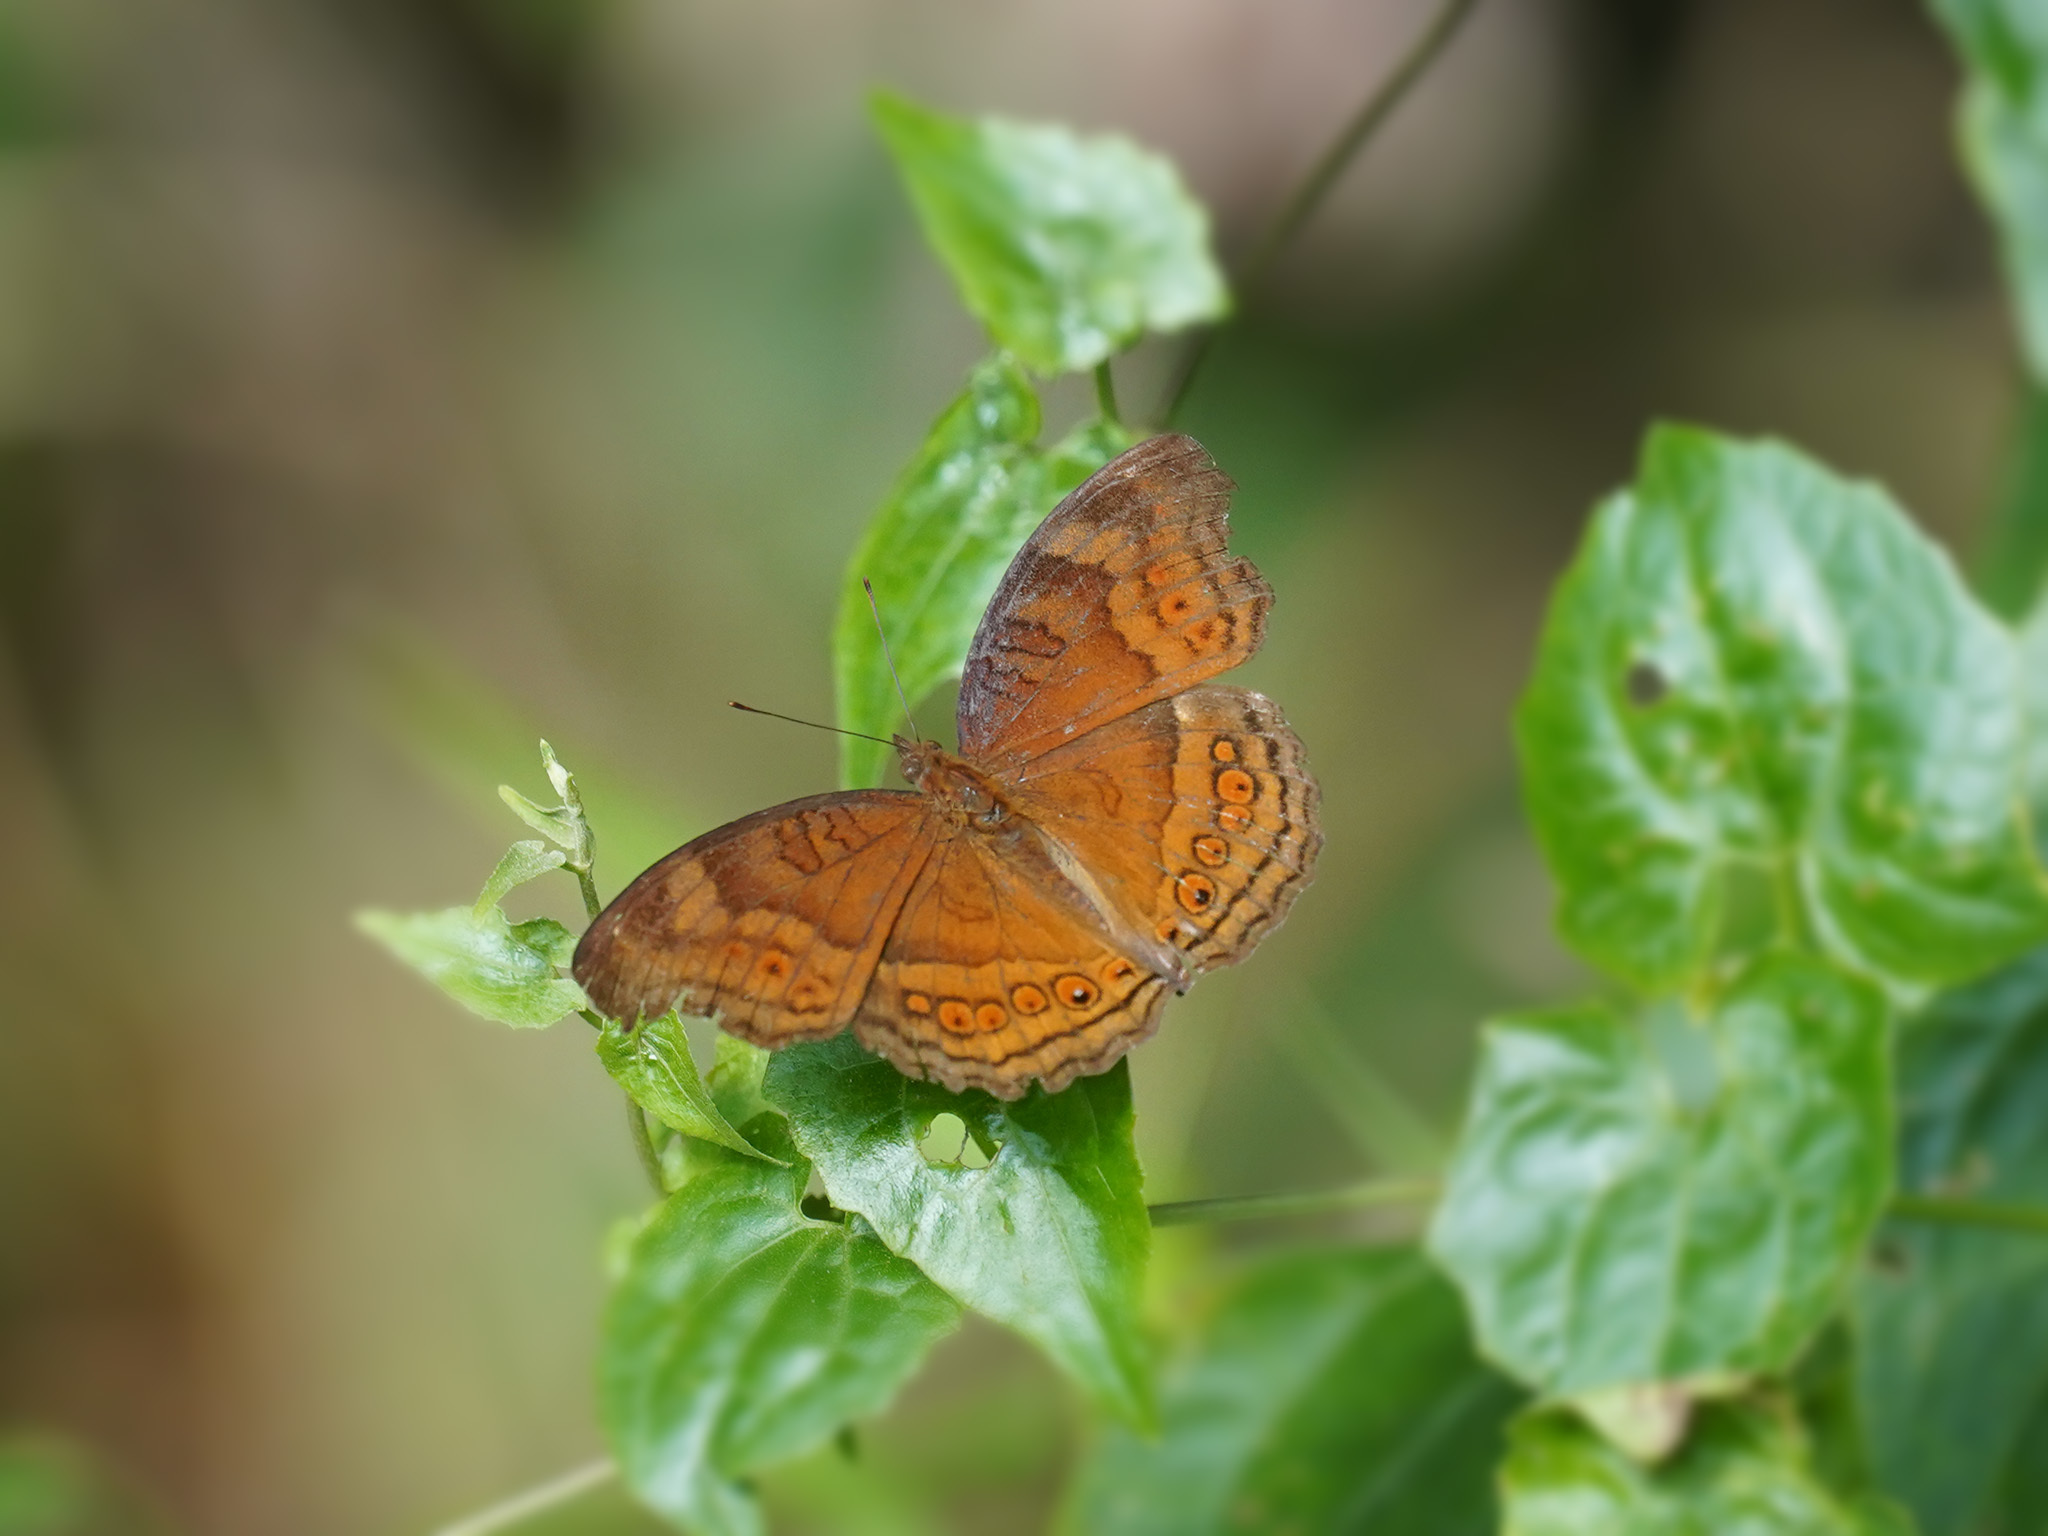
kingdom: Animalia
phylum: Arthropoda
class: Insecta
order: Lepidoptera
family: Nymphalidae
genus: Junonia
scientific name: Junonia hedonia
